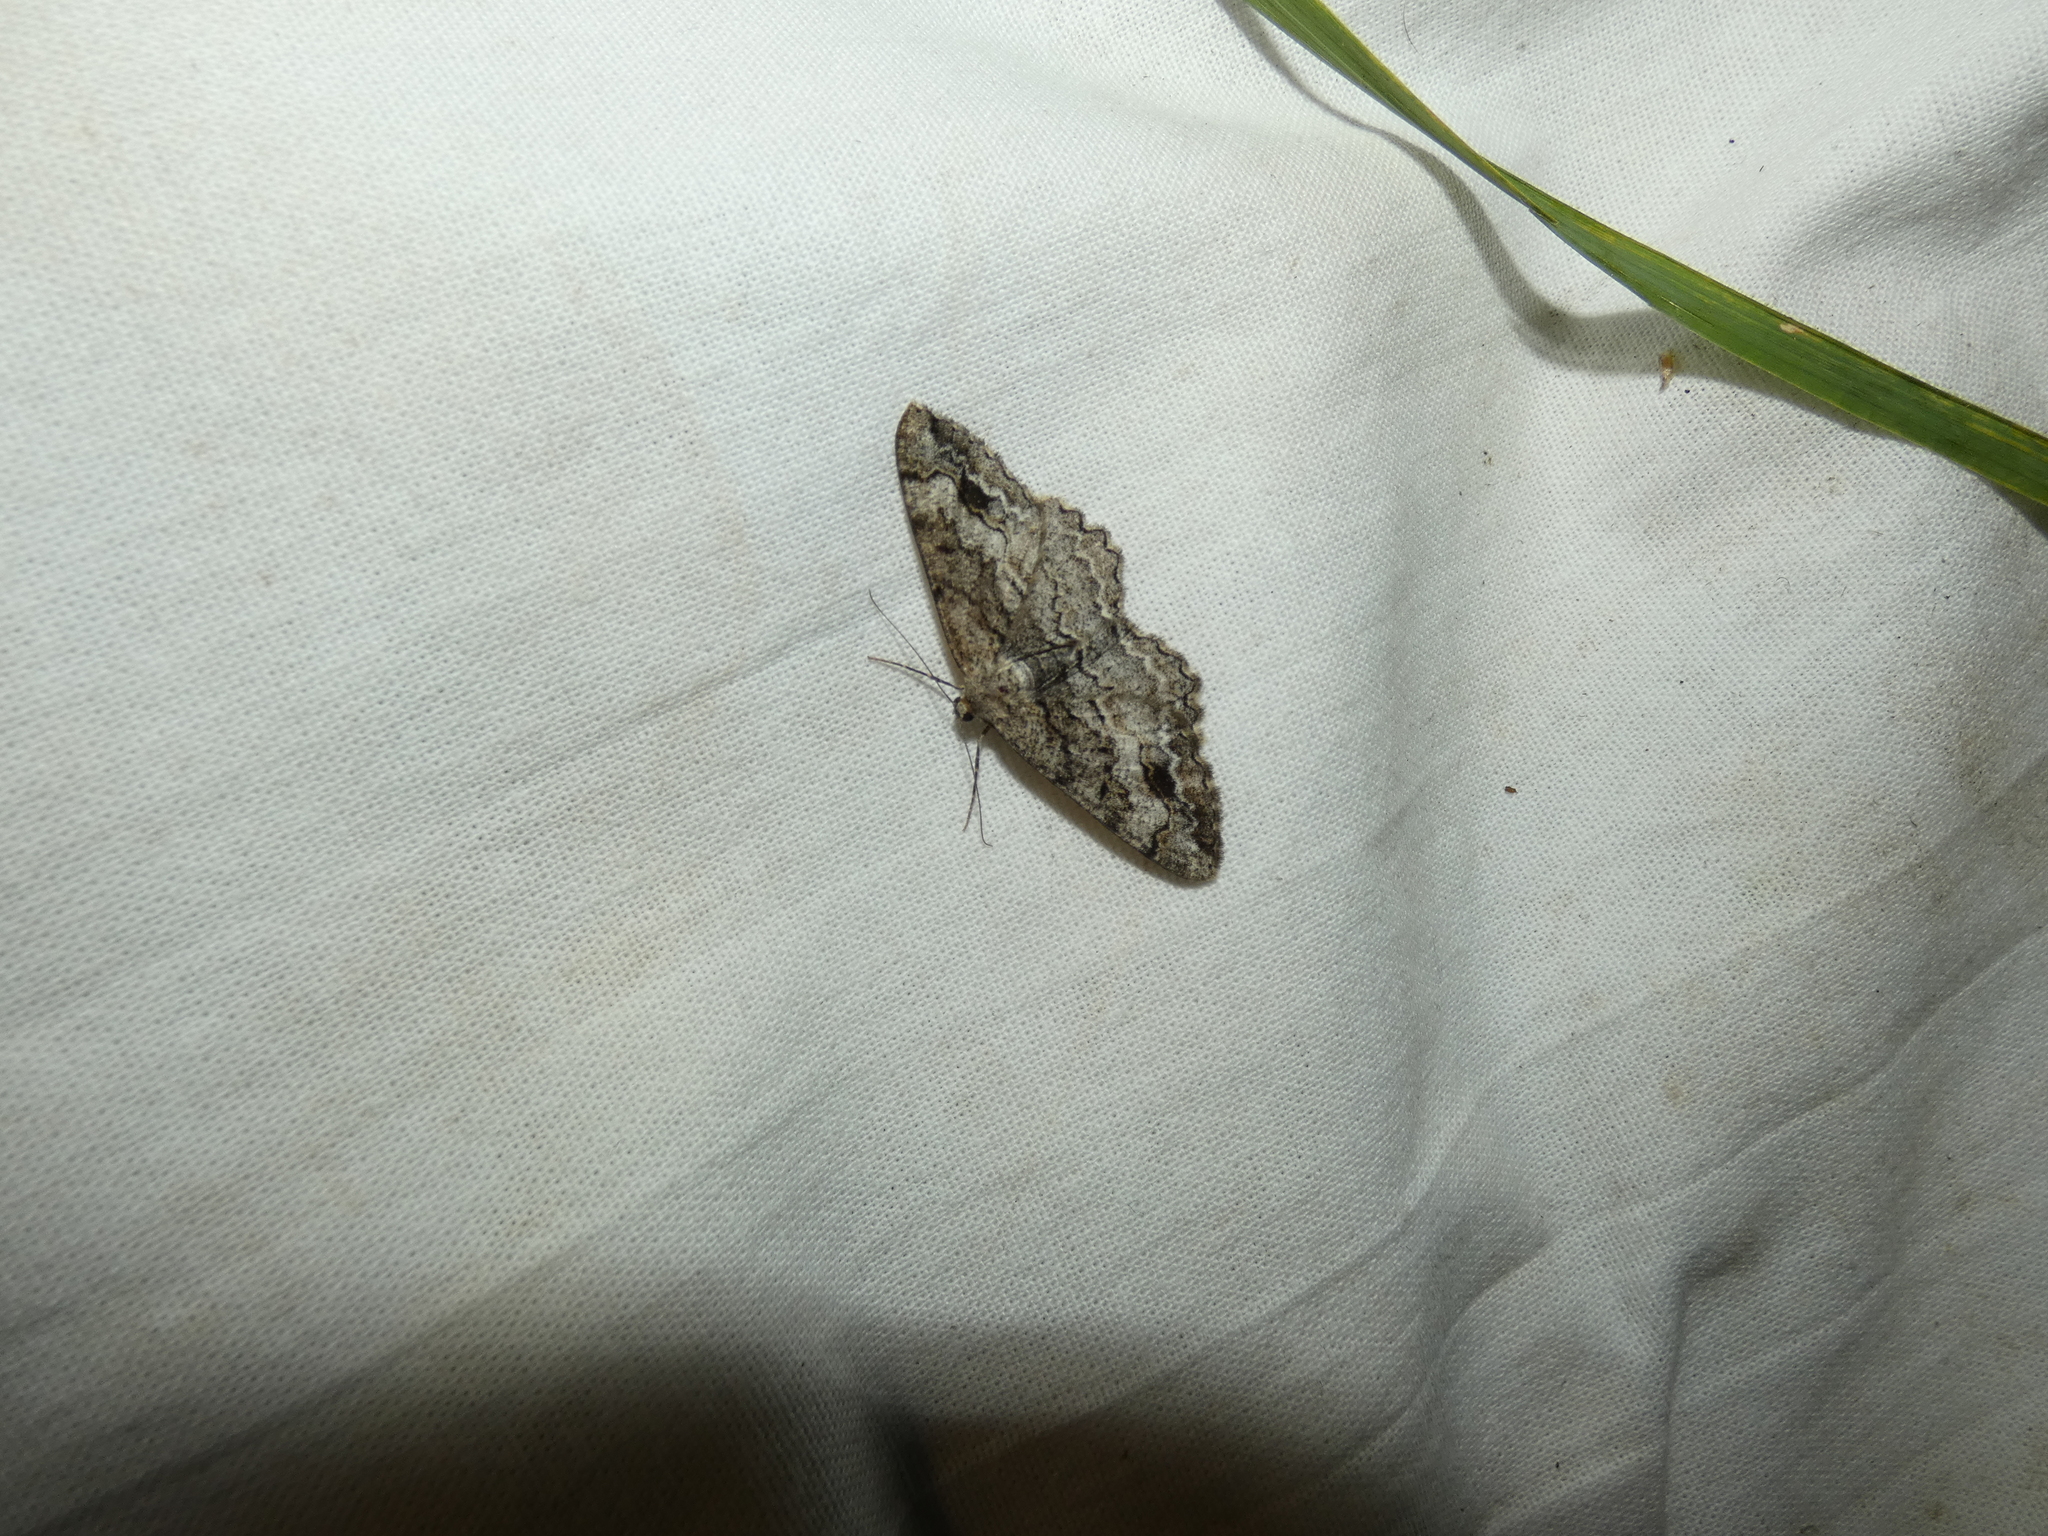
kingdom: Animalia
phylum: Arthropoda
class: Insecta
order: Lepidoptera
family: Geometridae
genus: Alcis
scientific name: Alcis deversata
